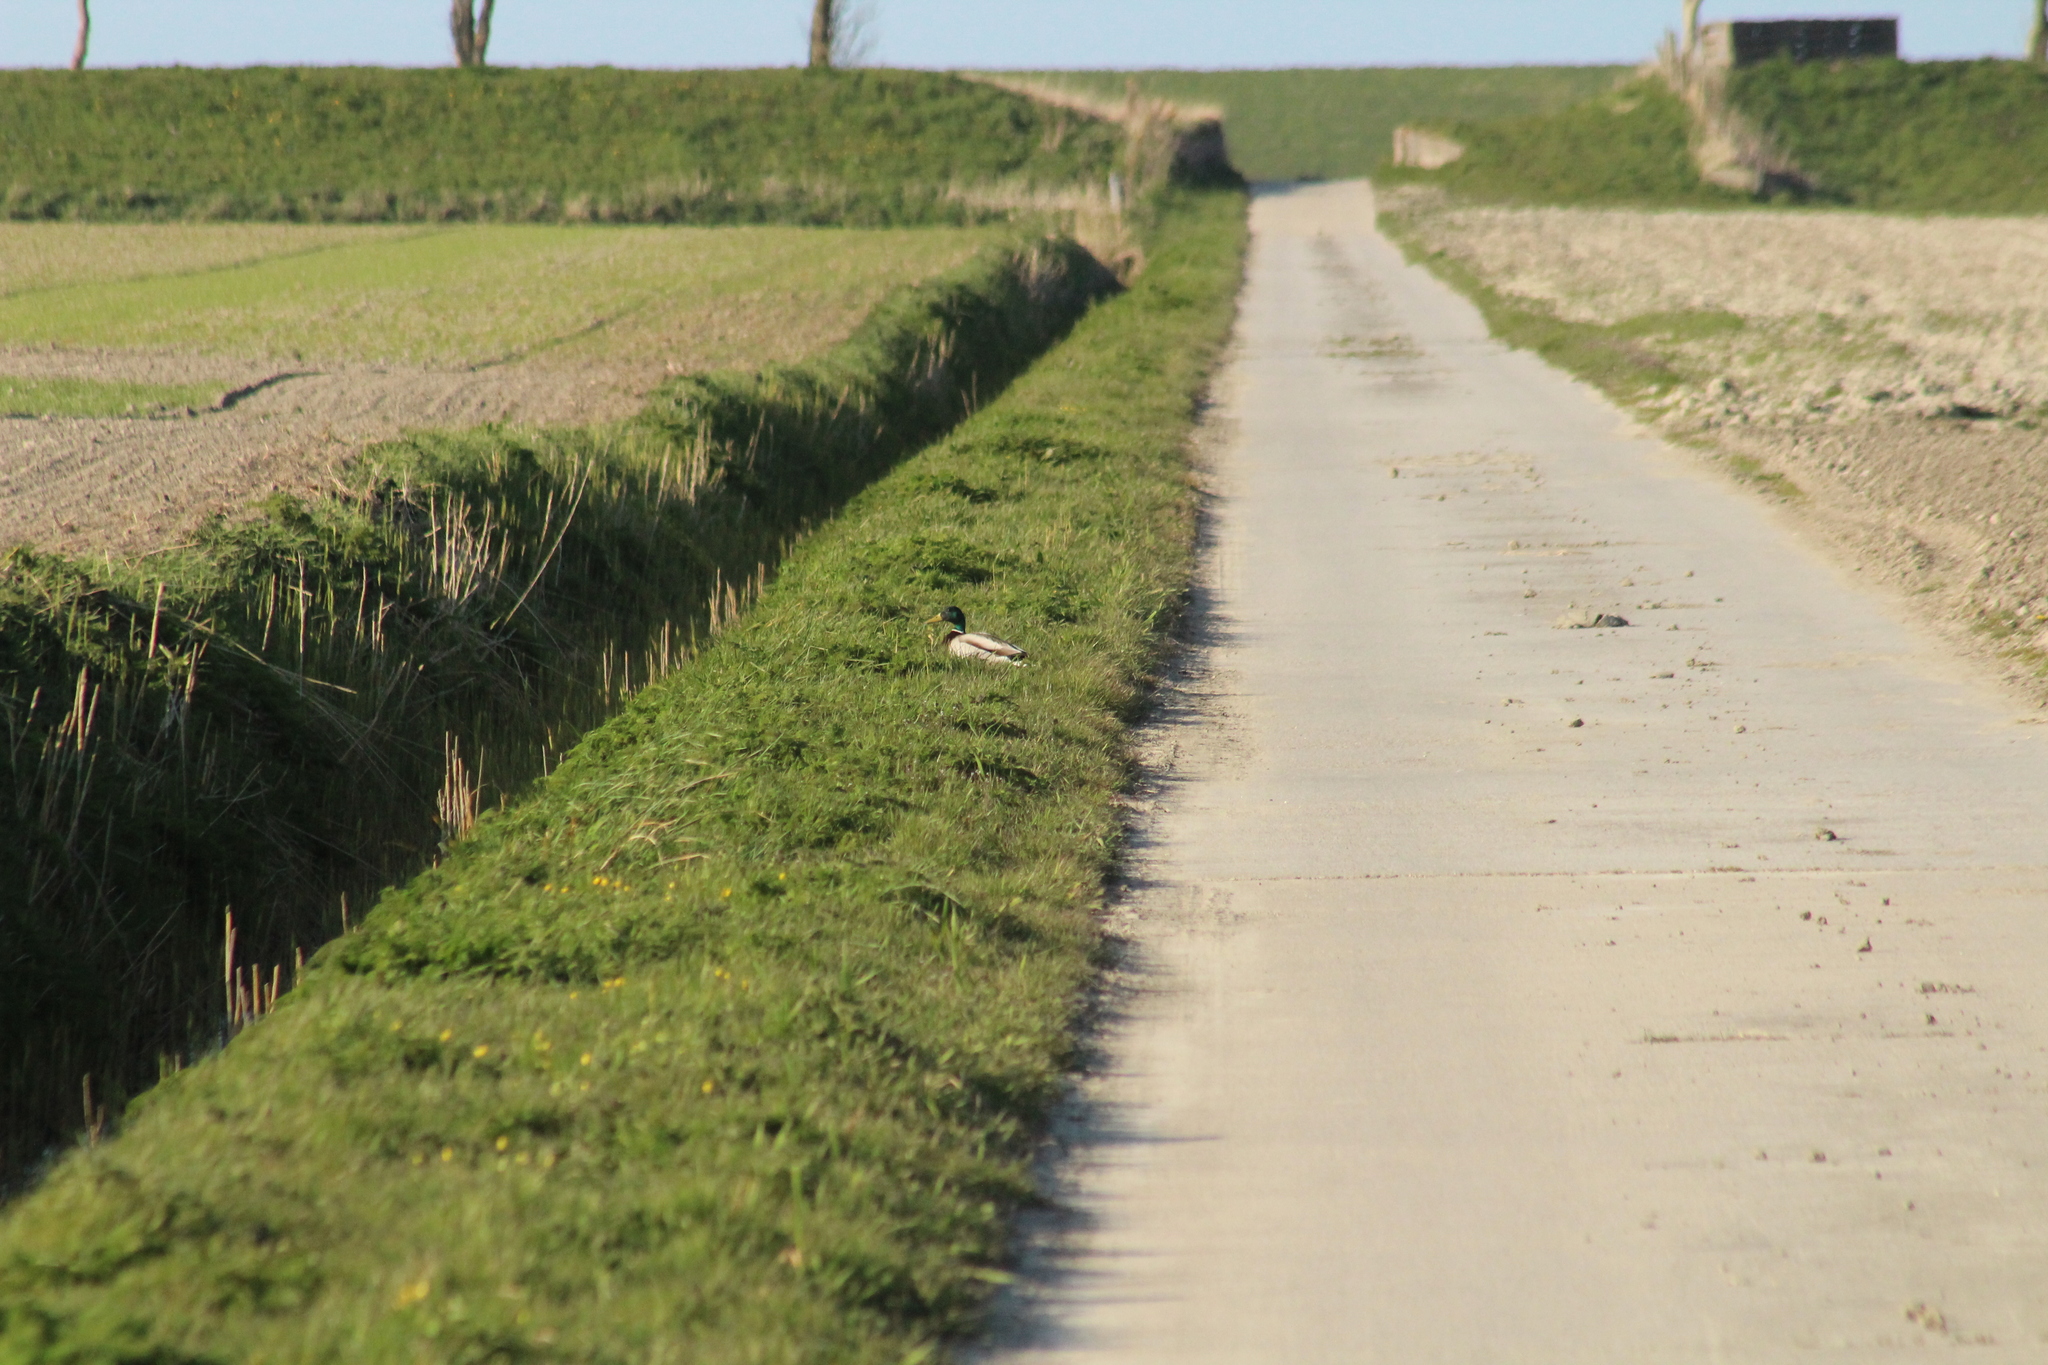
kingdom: Animalia
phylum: Chordata
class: Aves
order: Anseriformes
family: Anatidae
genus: Anas
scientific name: Anas platyrhynchos
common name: Mallard
